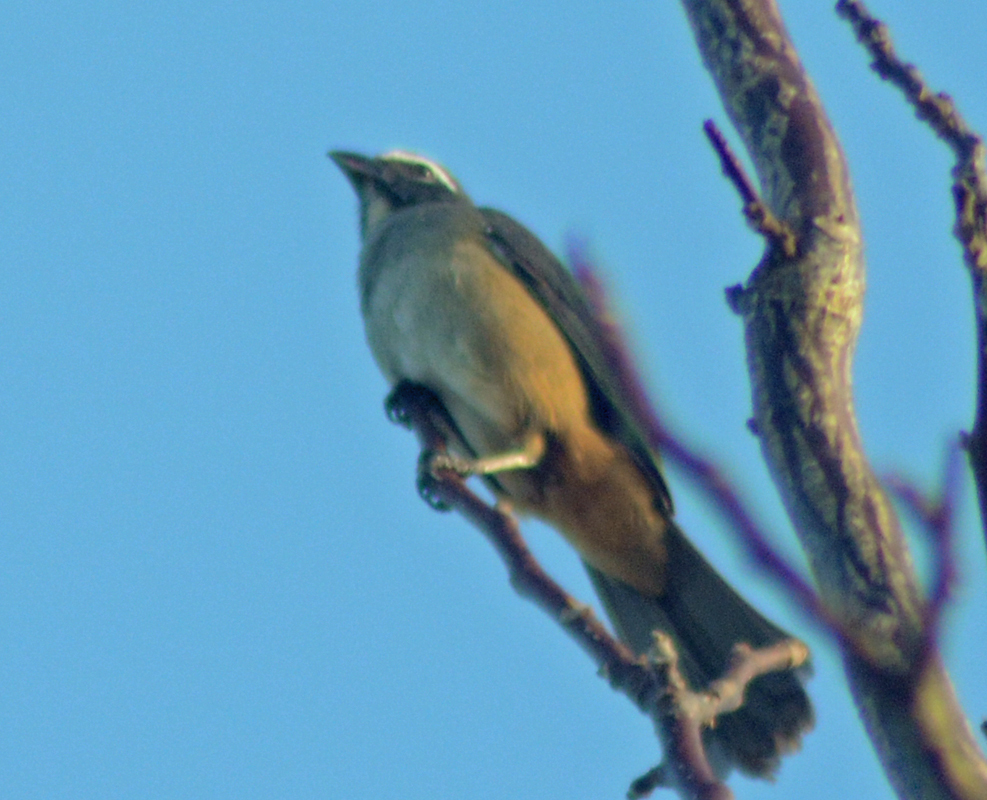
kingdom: Animalia
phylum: Chordata
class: Aves
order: Passeriformes
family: Thraupidae
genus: Saltator
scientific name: Saltator grandis
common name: Cinnamon-bellied saltator
